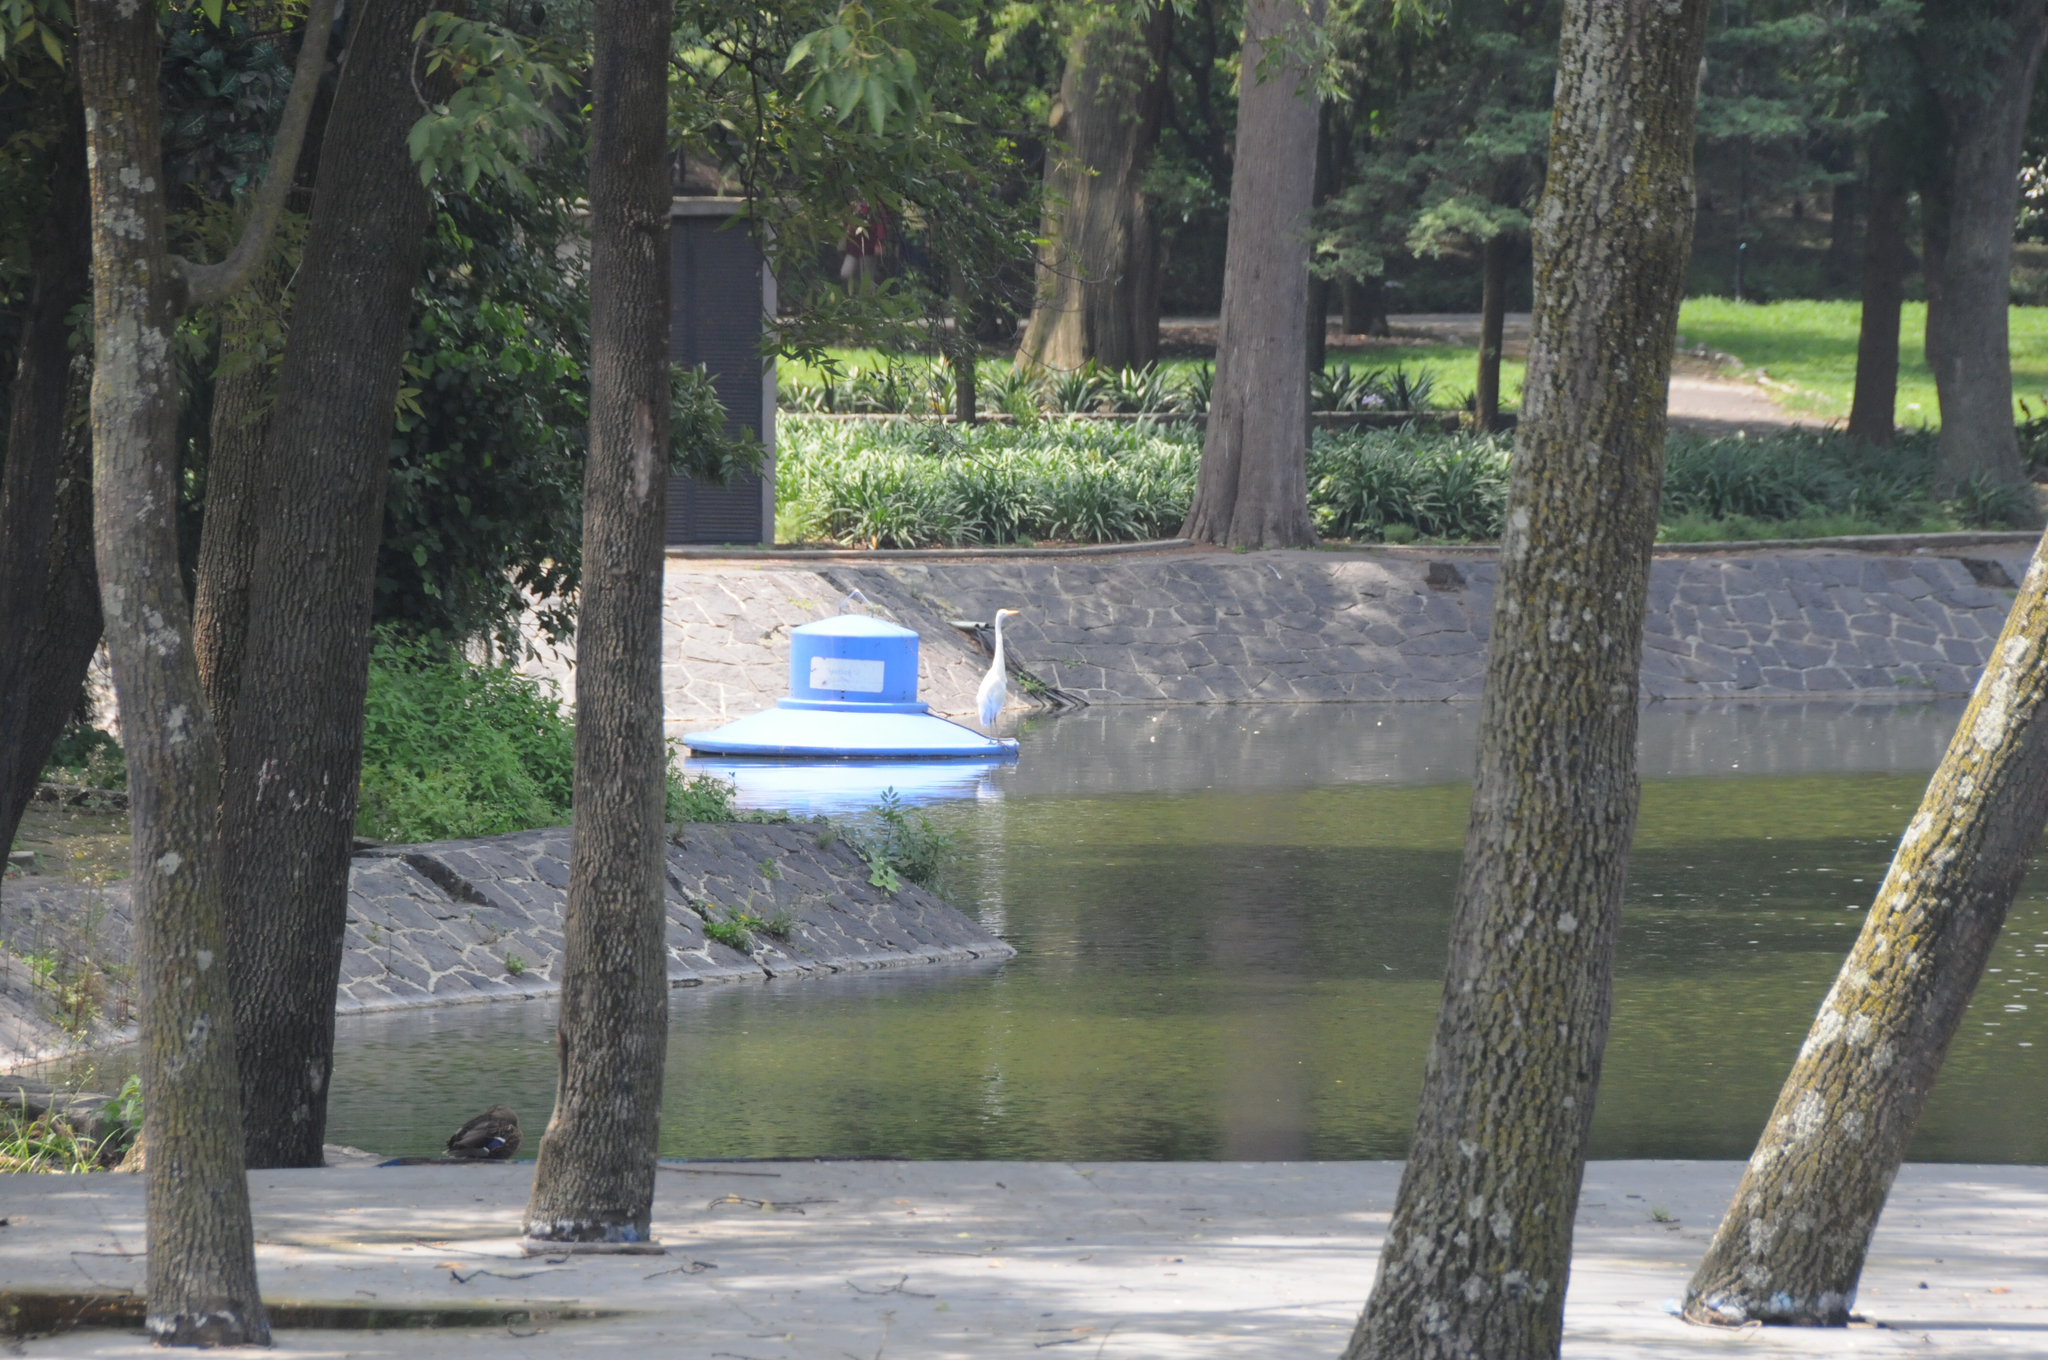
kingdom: Animalia
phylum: Chordata
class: Aves
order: Pelecaniformes
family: Ardeidae
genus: Ardea
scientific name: Ardea alba
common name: Great egret
